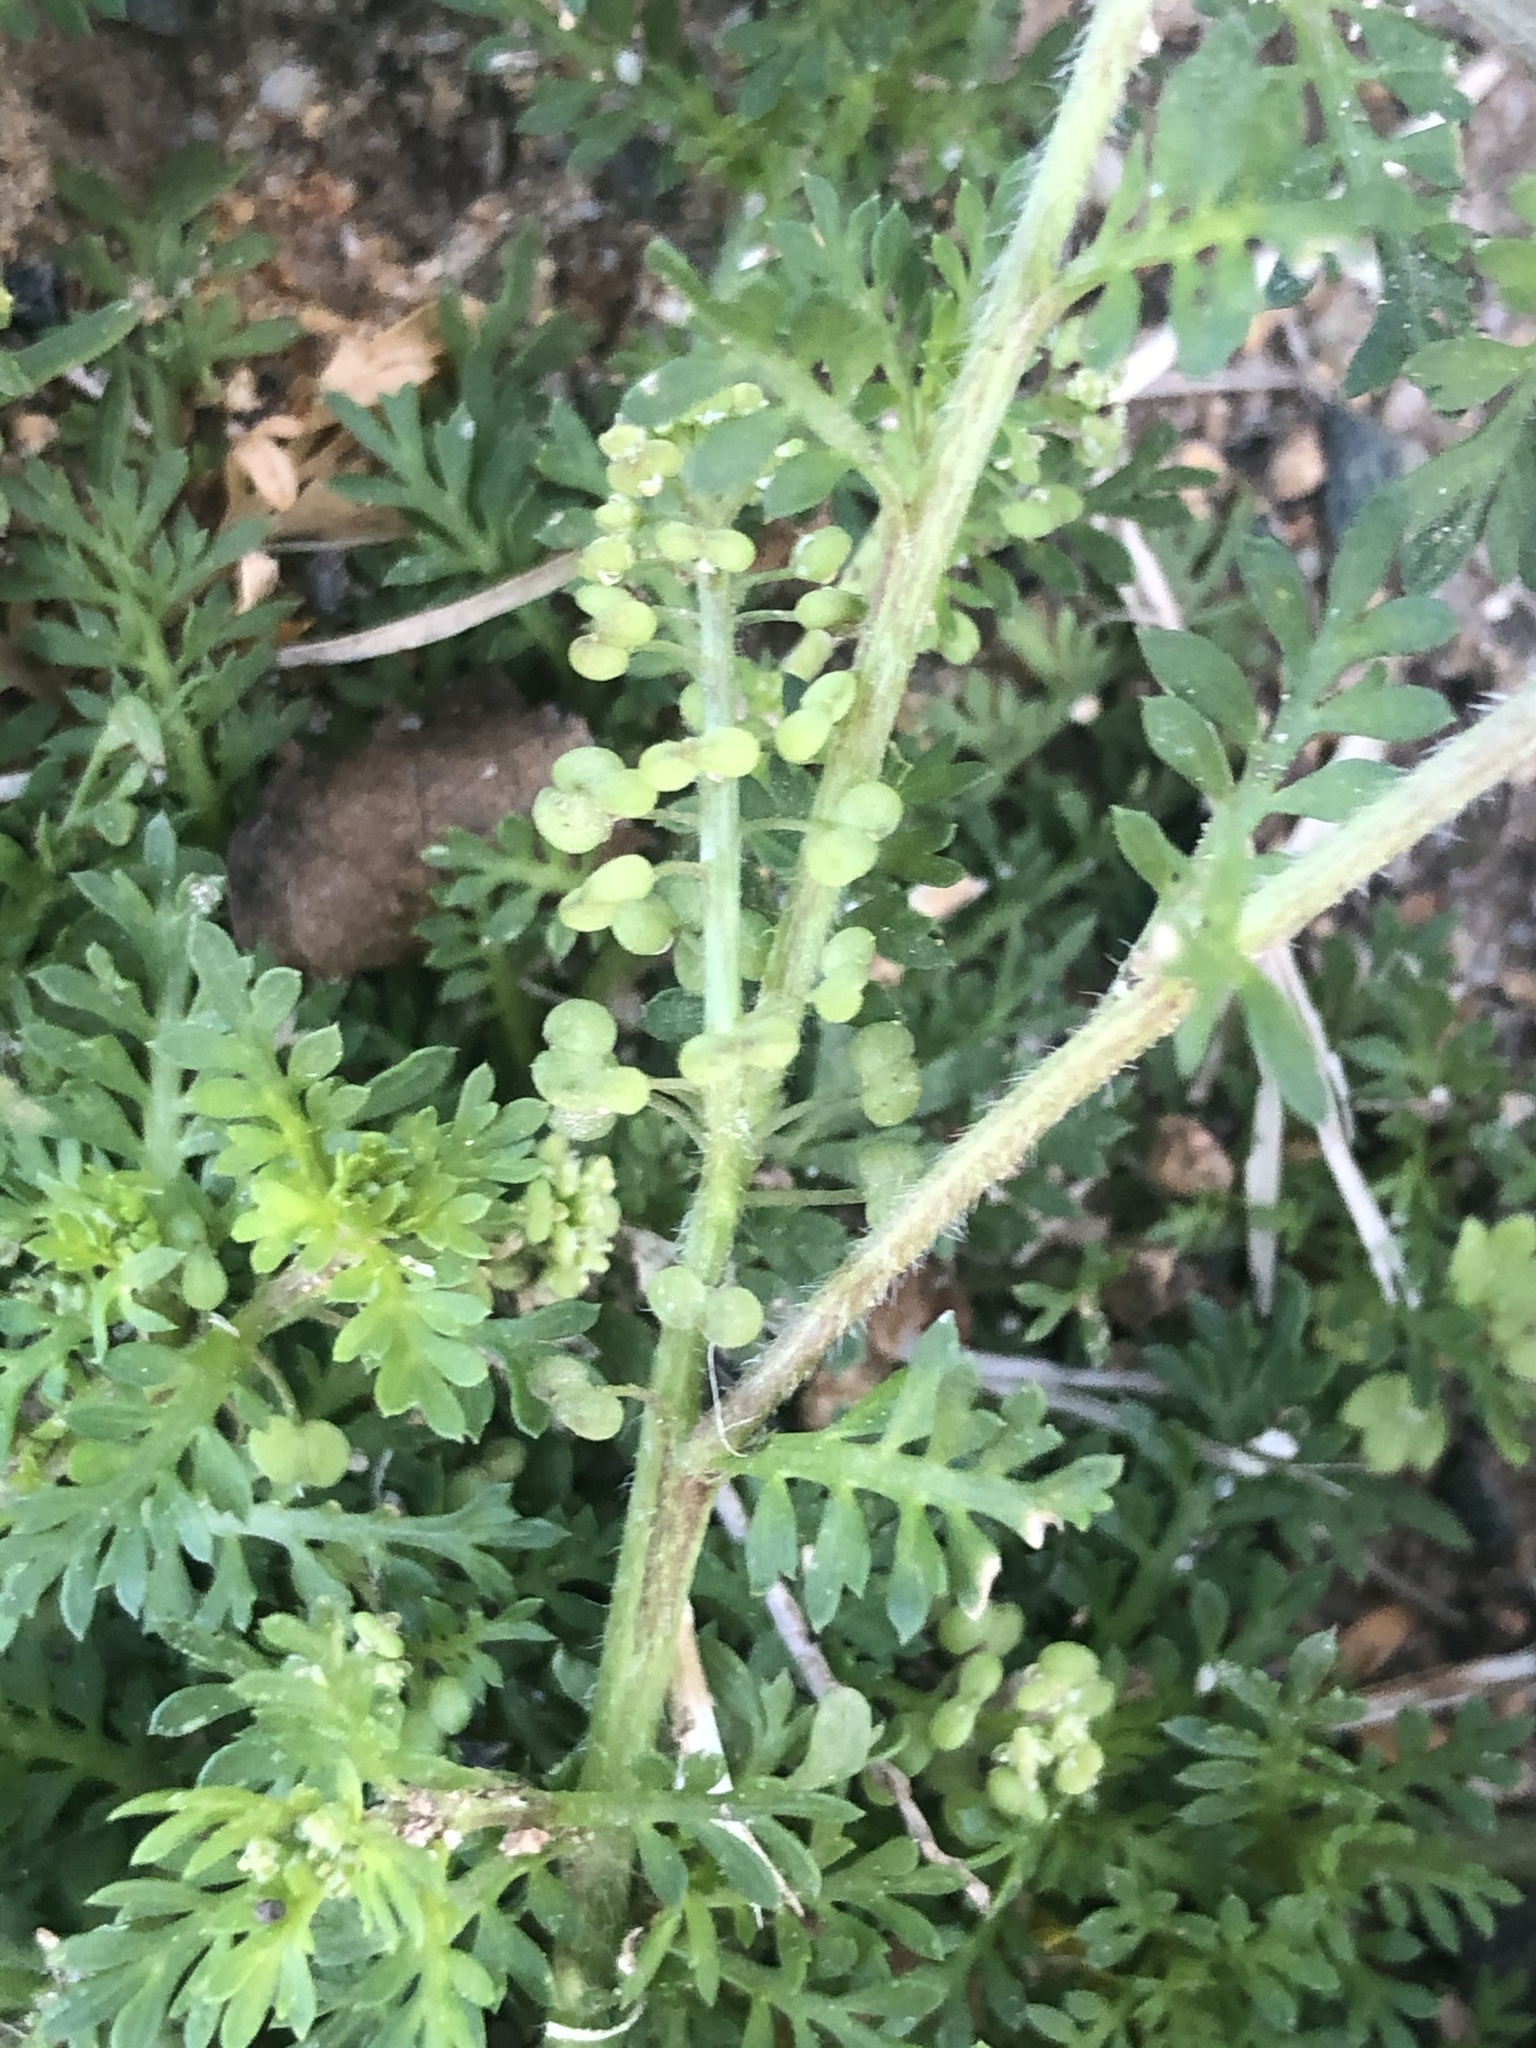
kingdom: Plantae
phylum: Tracheophyta
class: Magnoliopsida
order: Brassicales
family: Brassicaceae
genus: Lepidium
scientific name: Lepidium didymum
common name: Lesser swinecress
